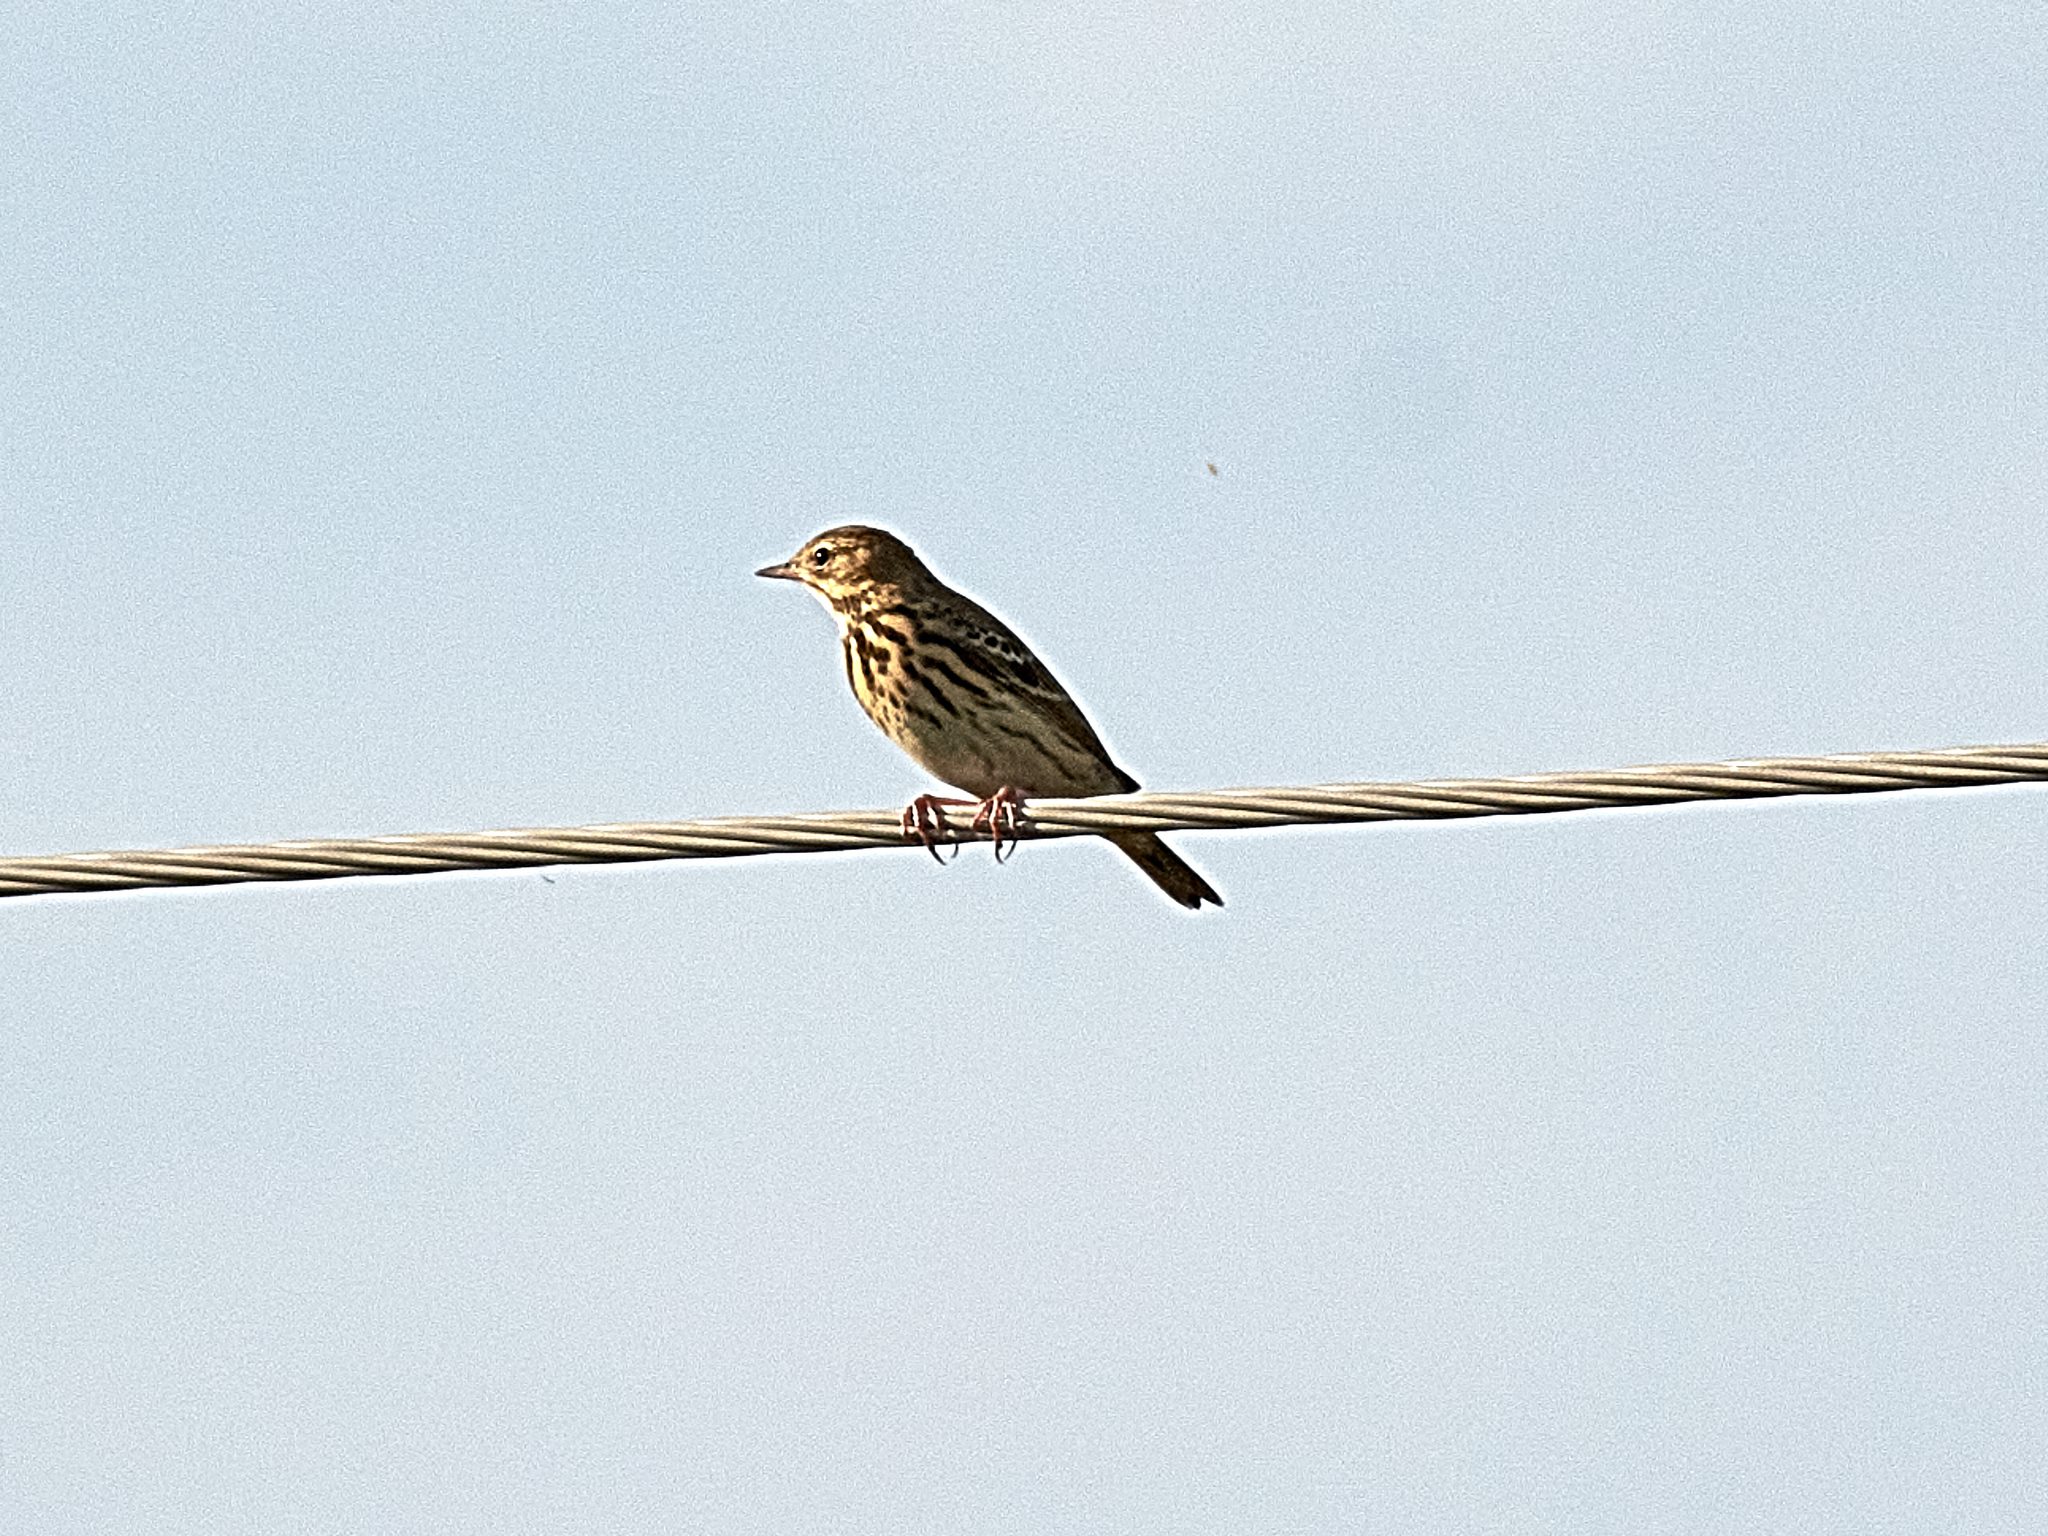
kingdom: Animalia
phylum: Chordata
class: Aves
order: Passeriformes
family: Motacillidae
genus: Anthus
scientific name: Anthus trivialis
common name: Tree pipit
